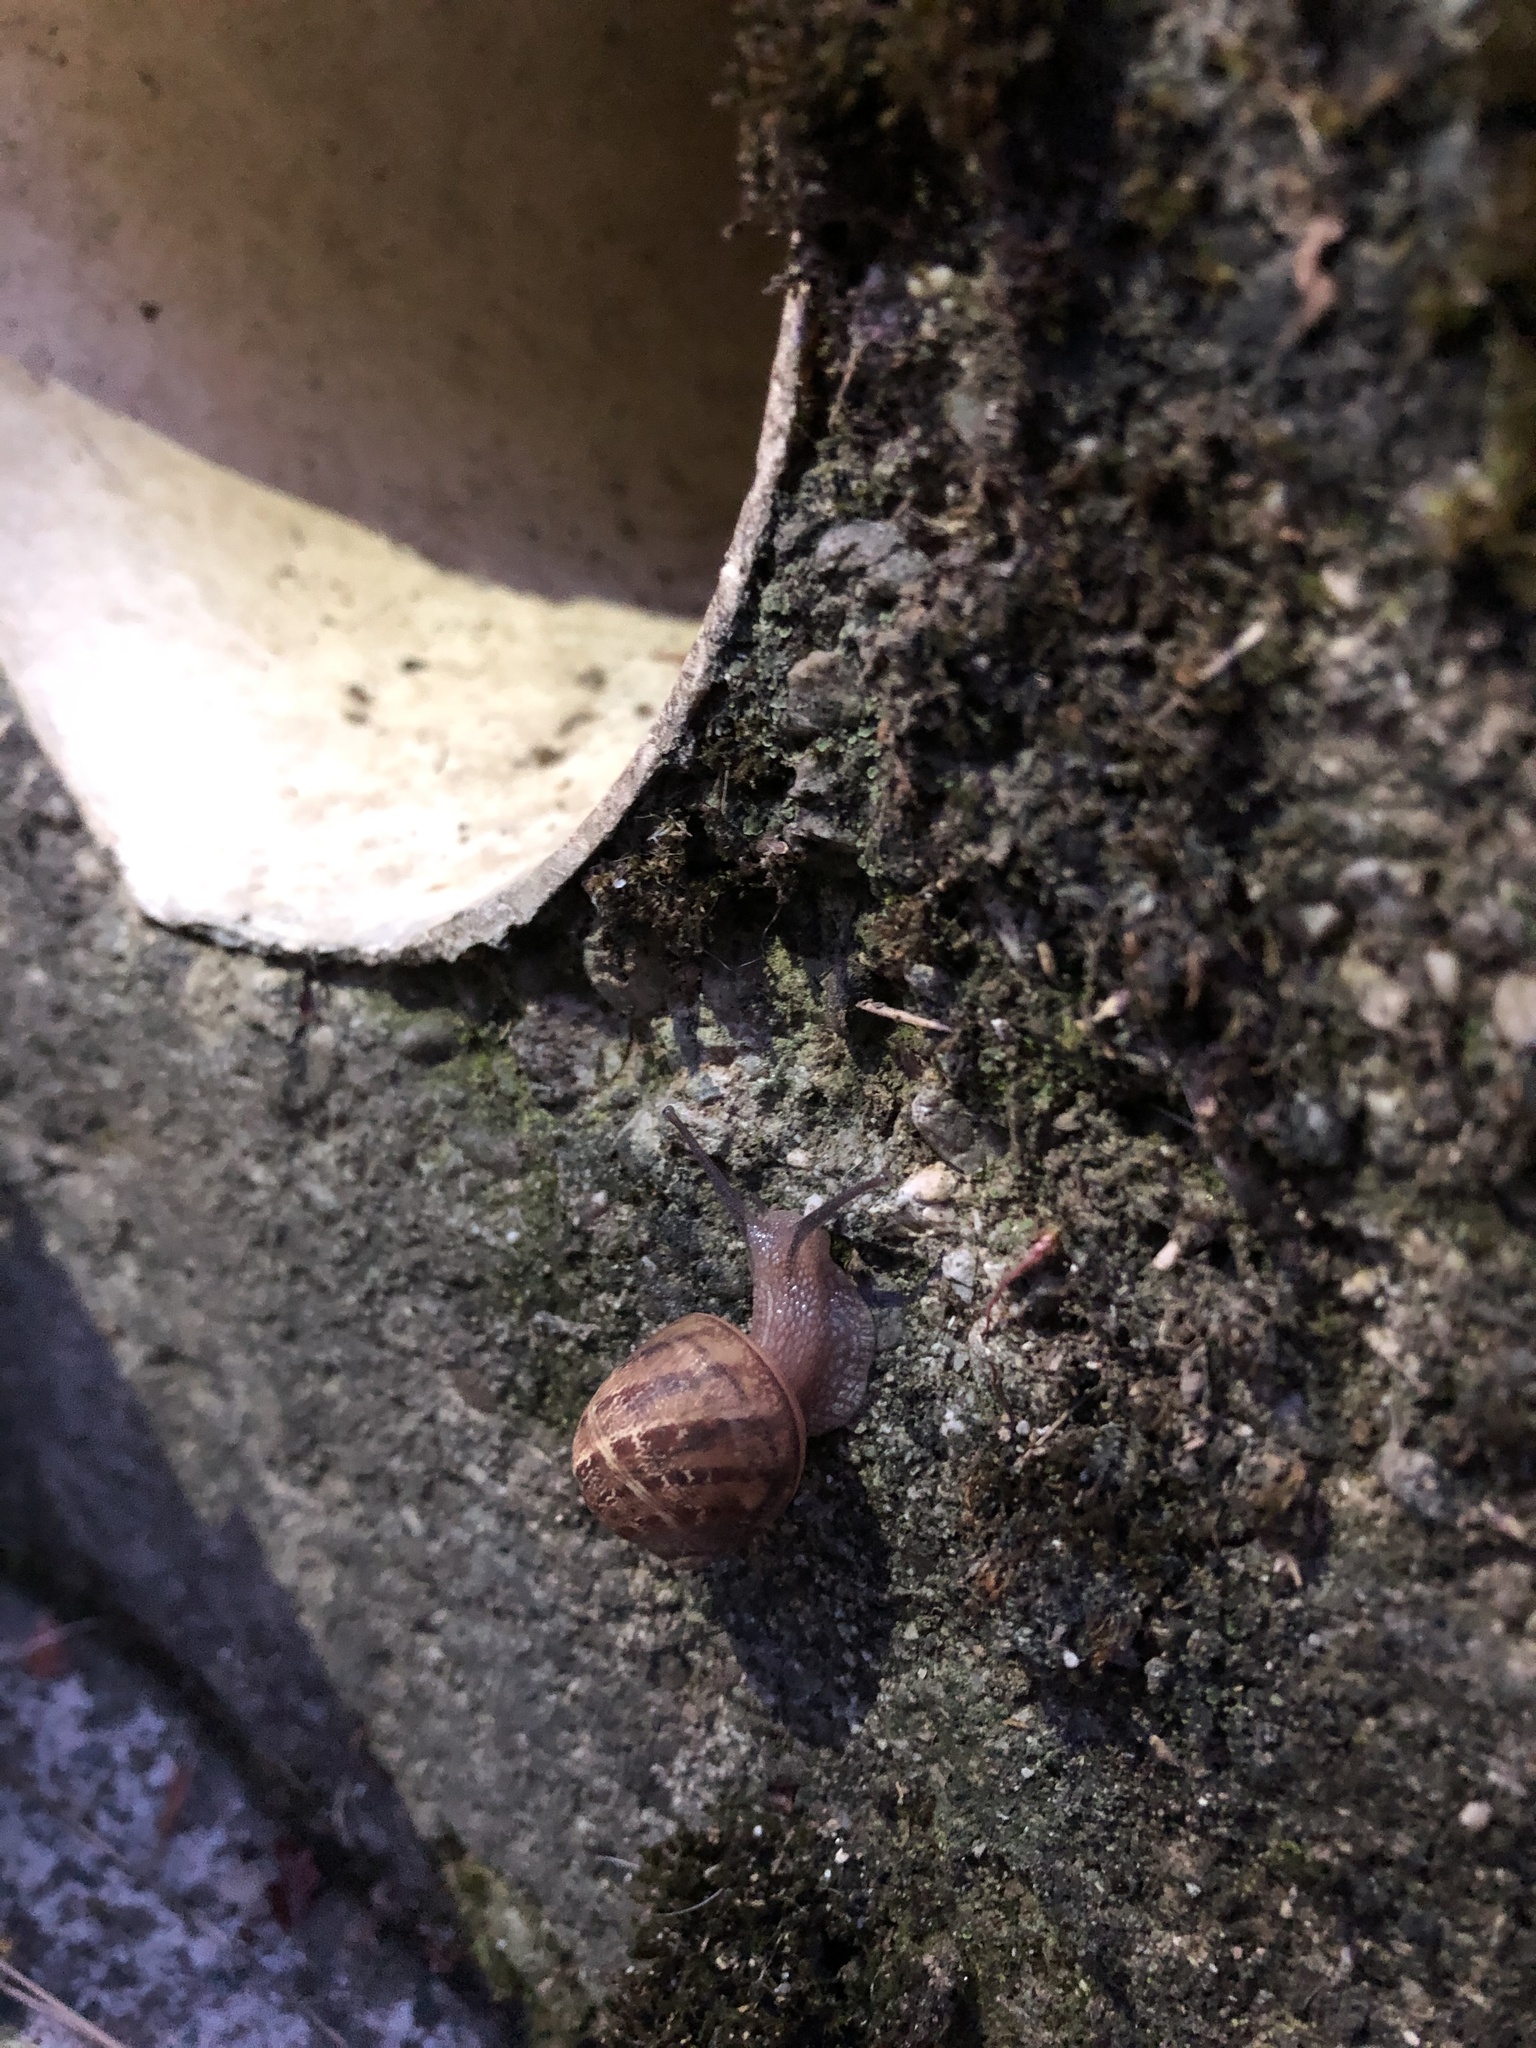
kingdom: Animalia
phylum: Mollusca
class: Gastropoda
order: Stylommatophora
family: Helicidae
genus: Cornu
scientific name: Cornu aspersum
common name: Brown garden snail
